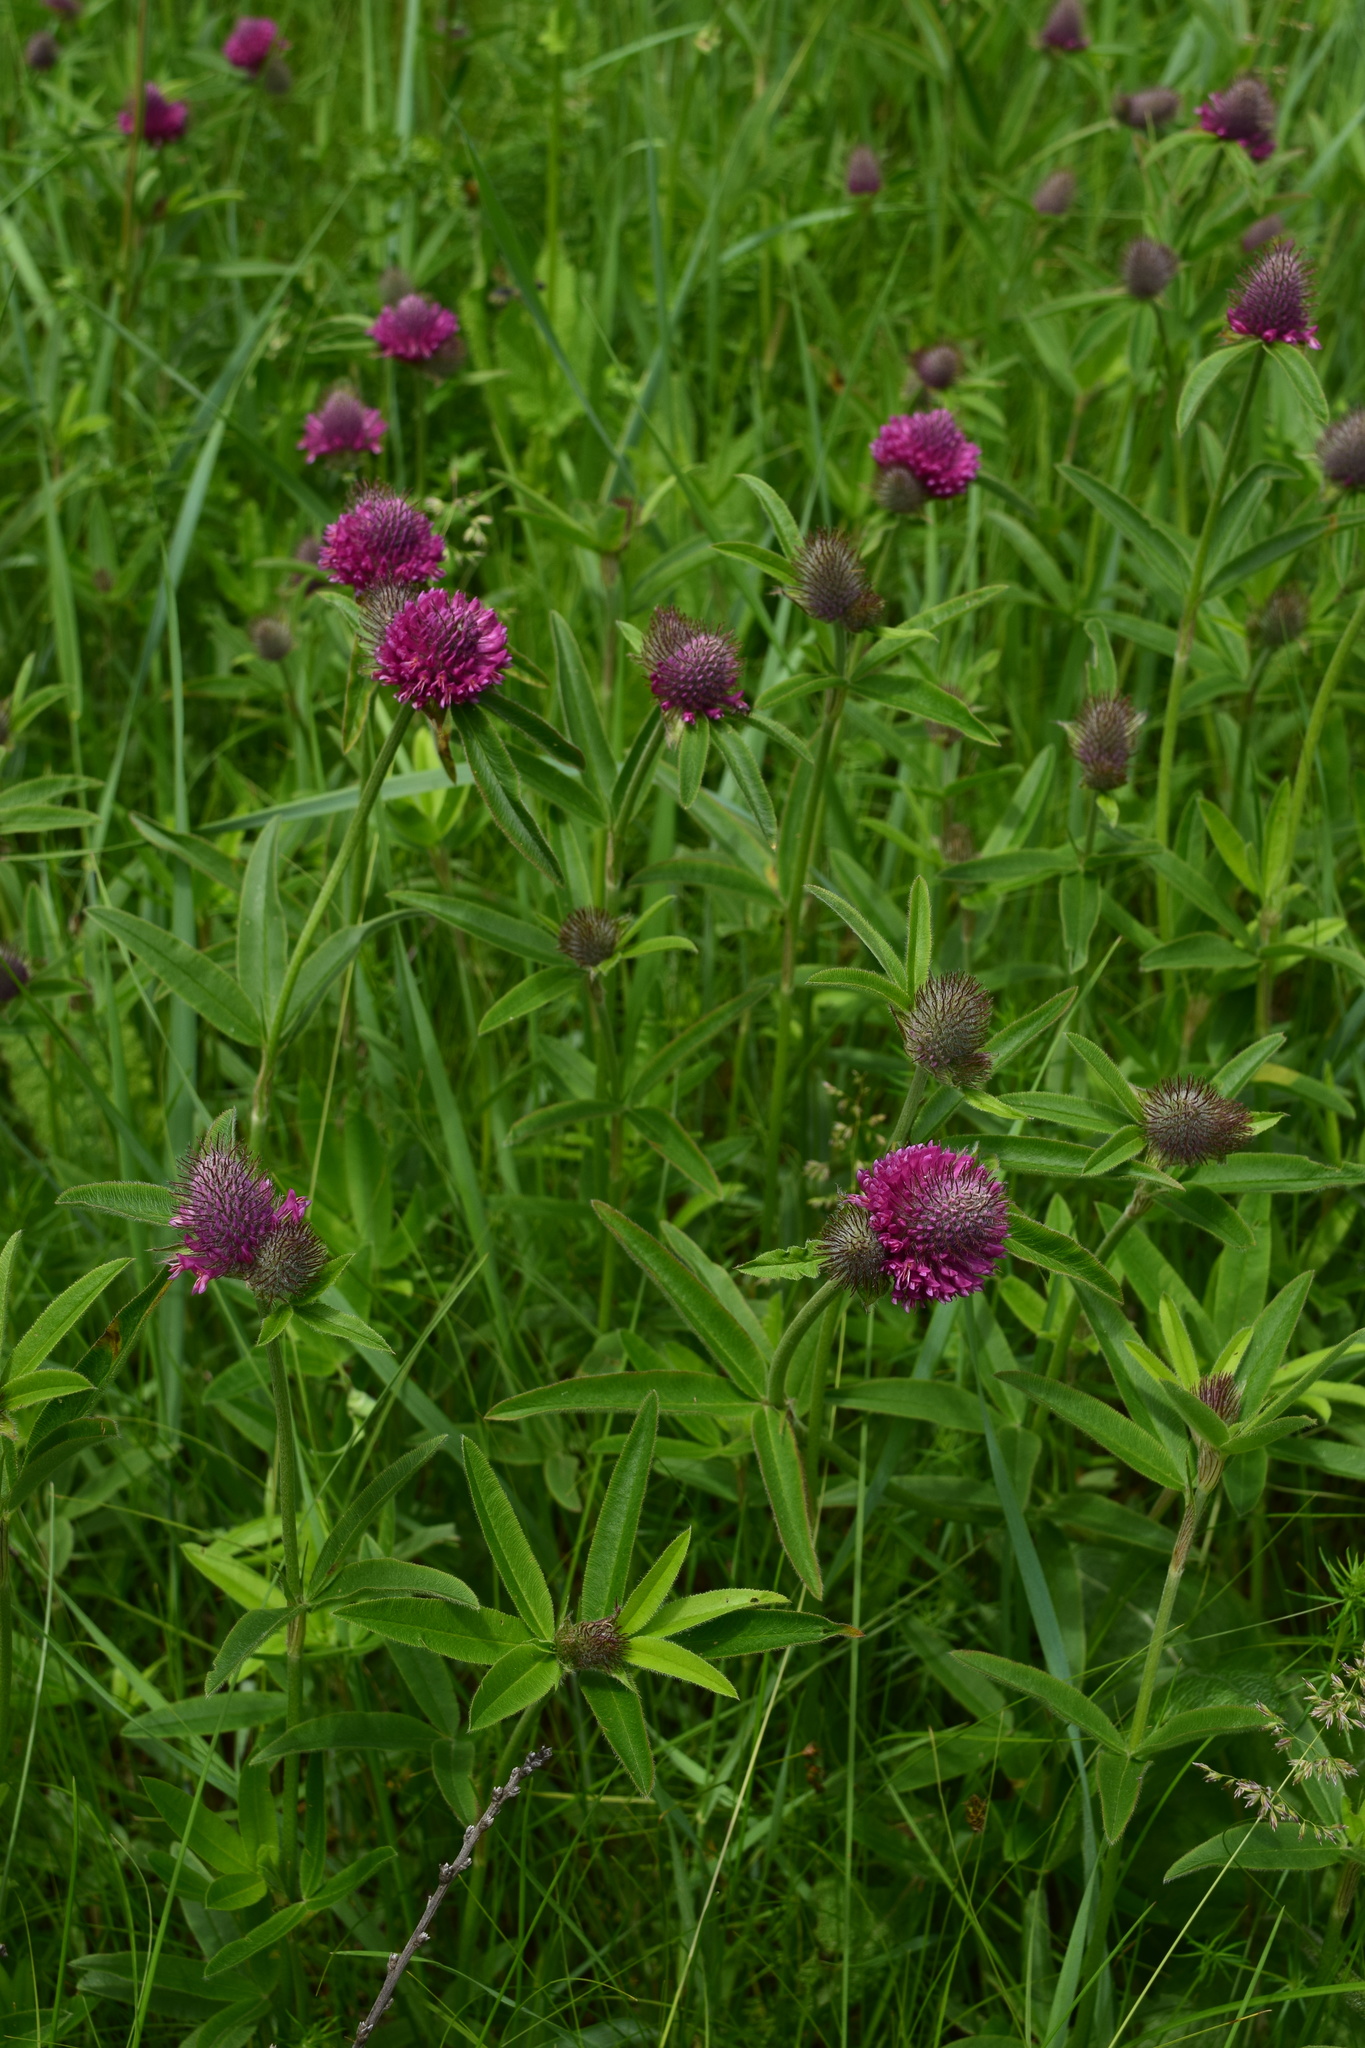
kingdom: Plantae
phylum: Tracheophyta
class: Magnoliopsida
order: Fabales
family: Fabaceae
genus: Trifolium
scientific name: Trifolium alpestre
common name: Owl-head clover
